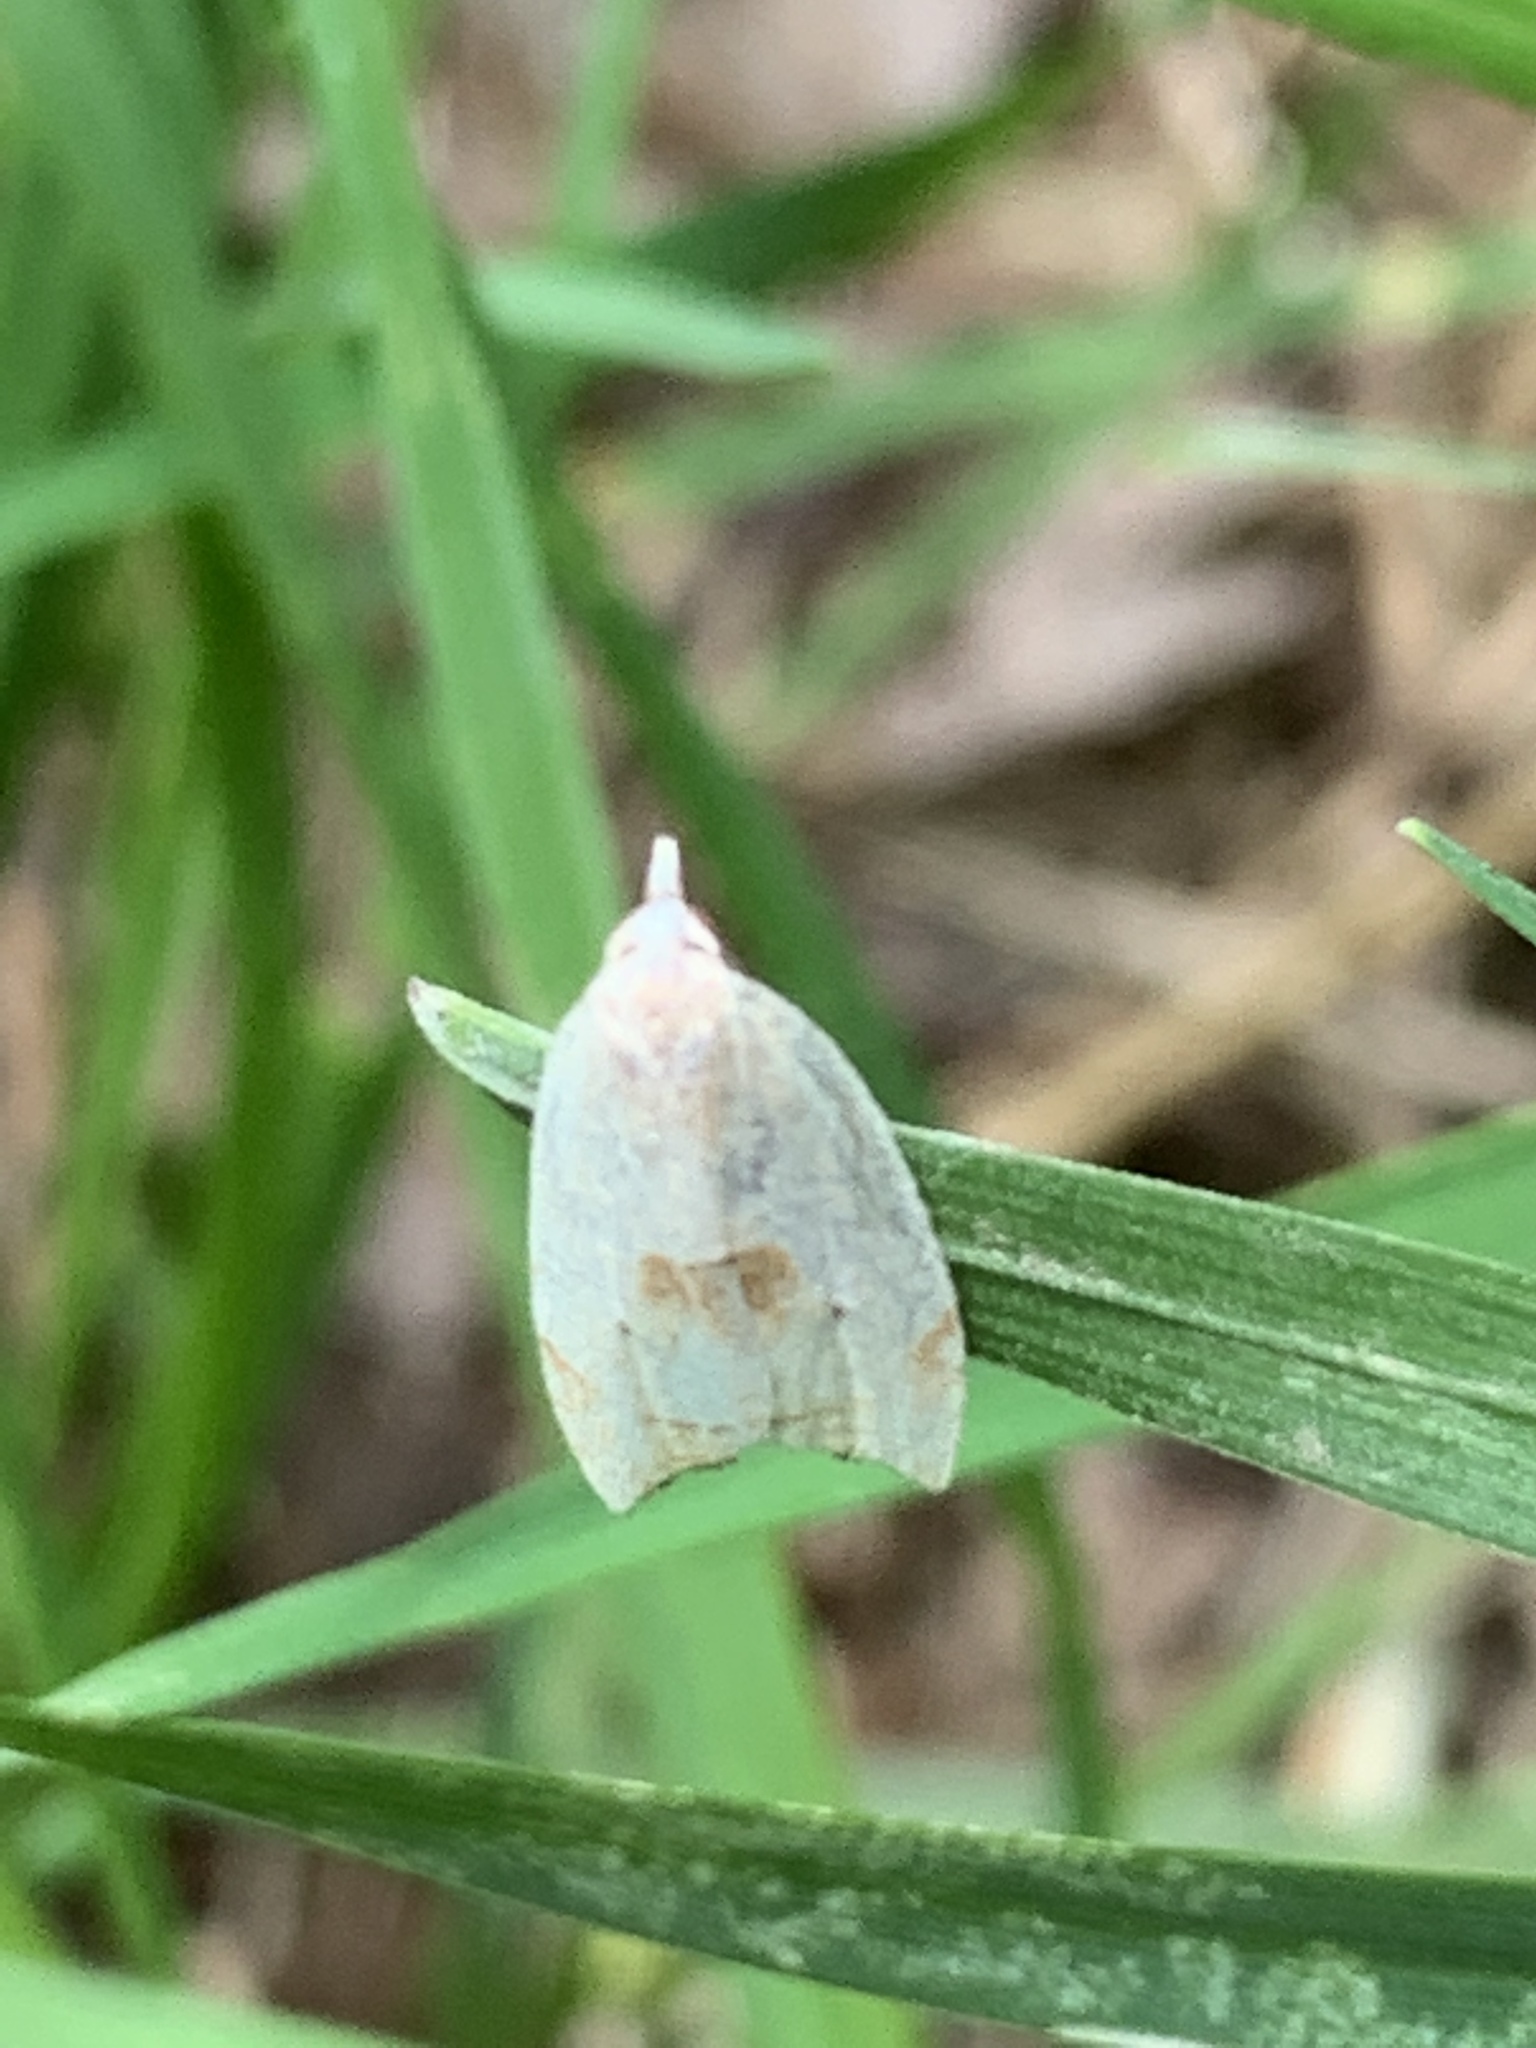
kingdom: Animalia
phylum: Arthropoda
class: Insecta
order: Lepidoptera
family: Tortricidae
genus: Coelostathma
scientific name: Coelostathma discopunctana
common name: Batman moth
